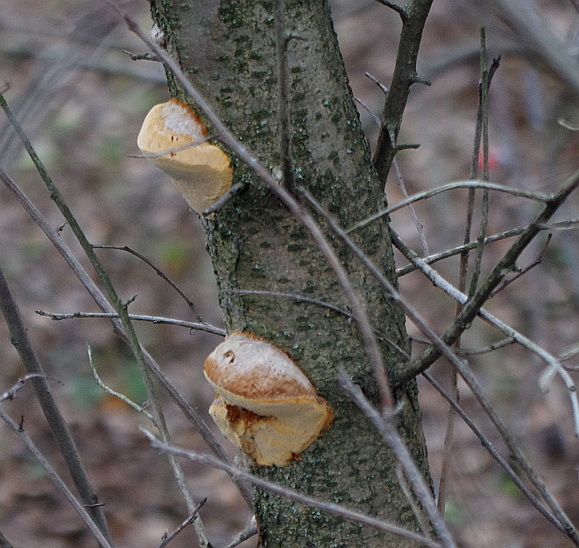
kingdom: Fungi
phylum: Basidiomycota
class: Agaricomycetes
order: Polyporales
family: Fomitopsidaceae
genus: Fomitopsis
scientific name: Fomitopsis betulina
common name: Birch polypore
